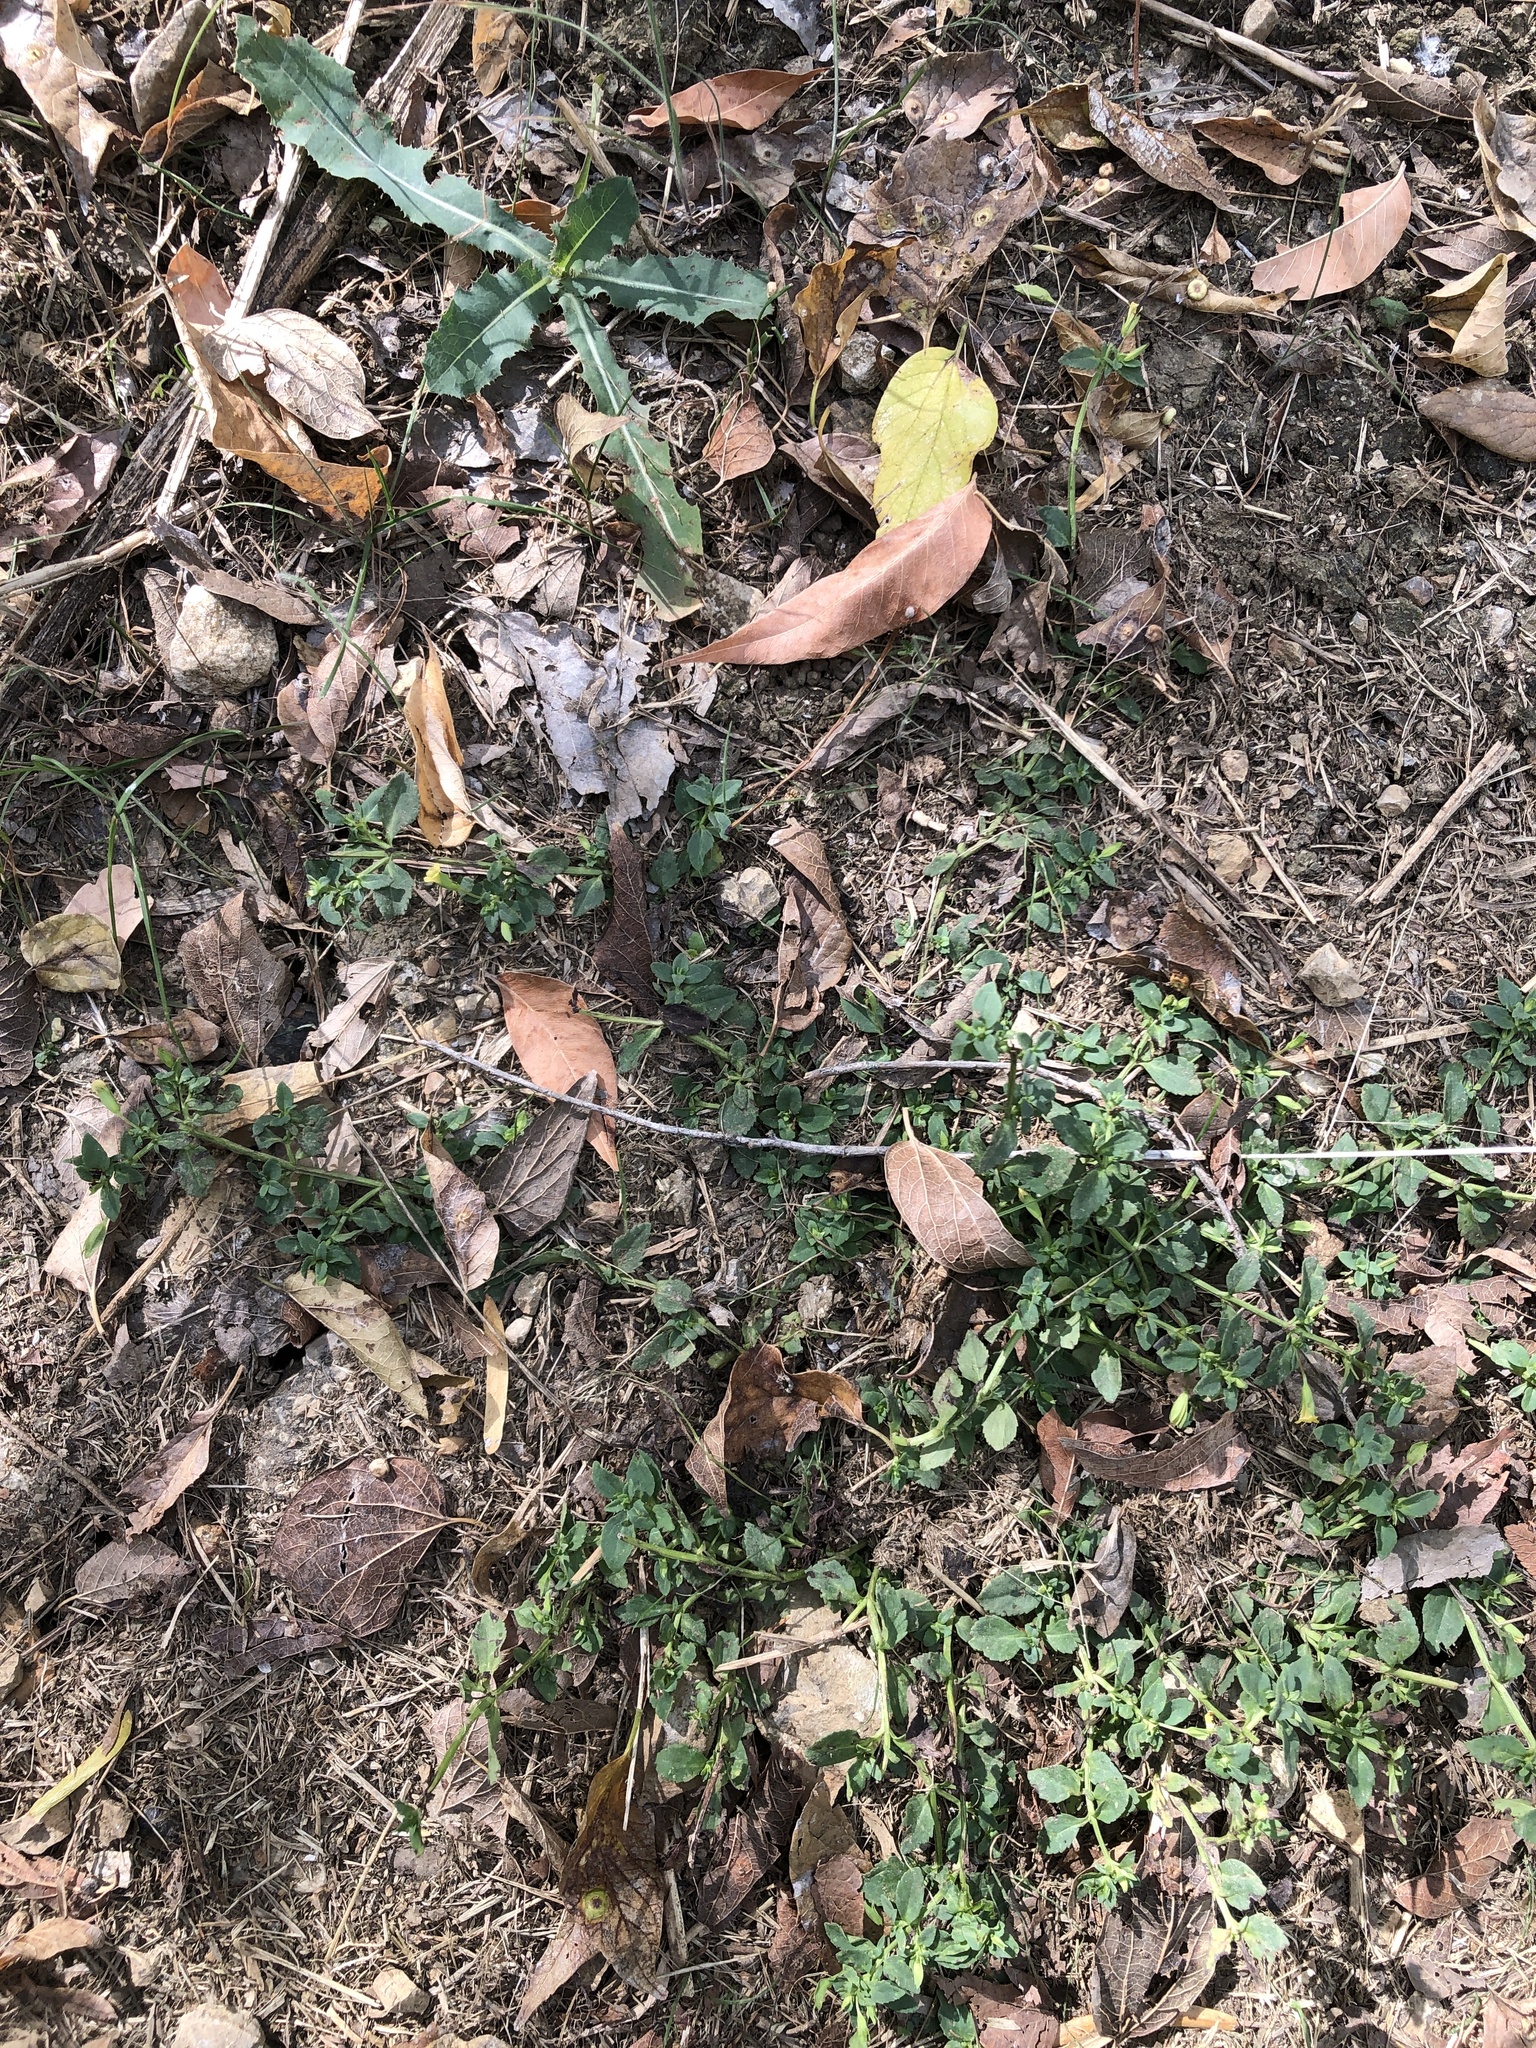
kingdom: Plantae
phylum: Tracheophyta
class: Magnoliopsida
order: Lamiales
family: Plantaginaceae
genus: Mecardonia
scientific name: Mecardonia procumbens
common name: Baby jump-up
